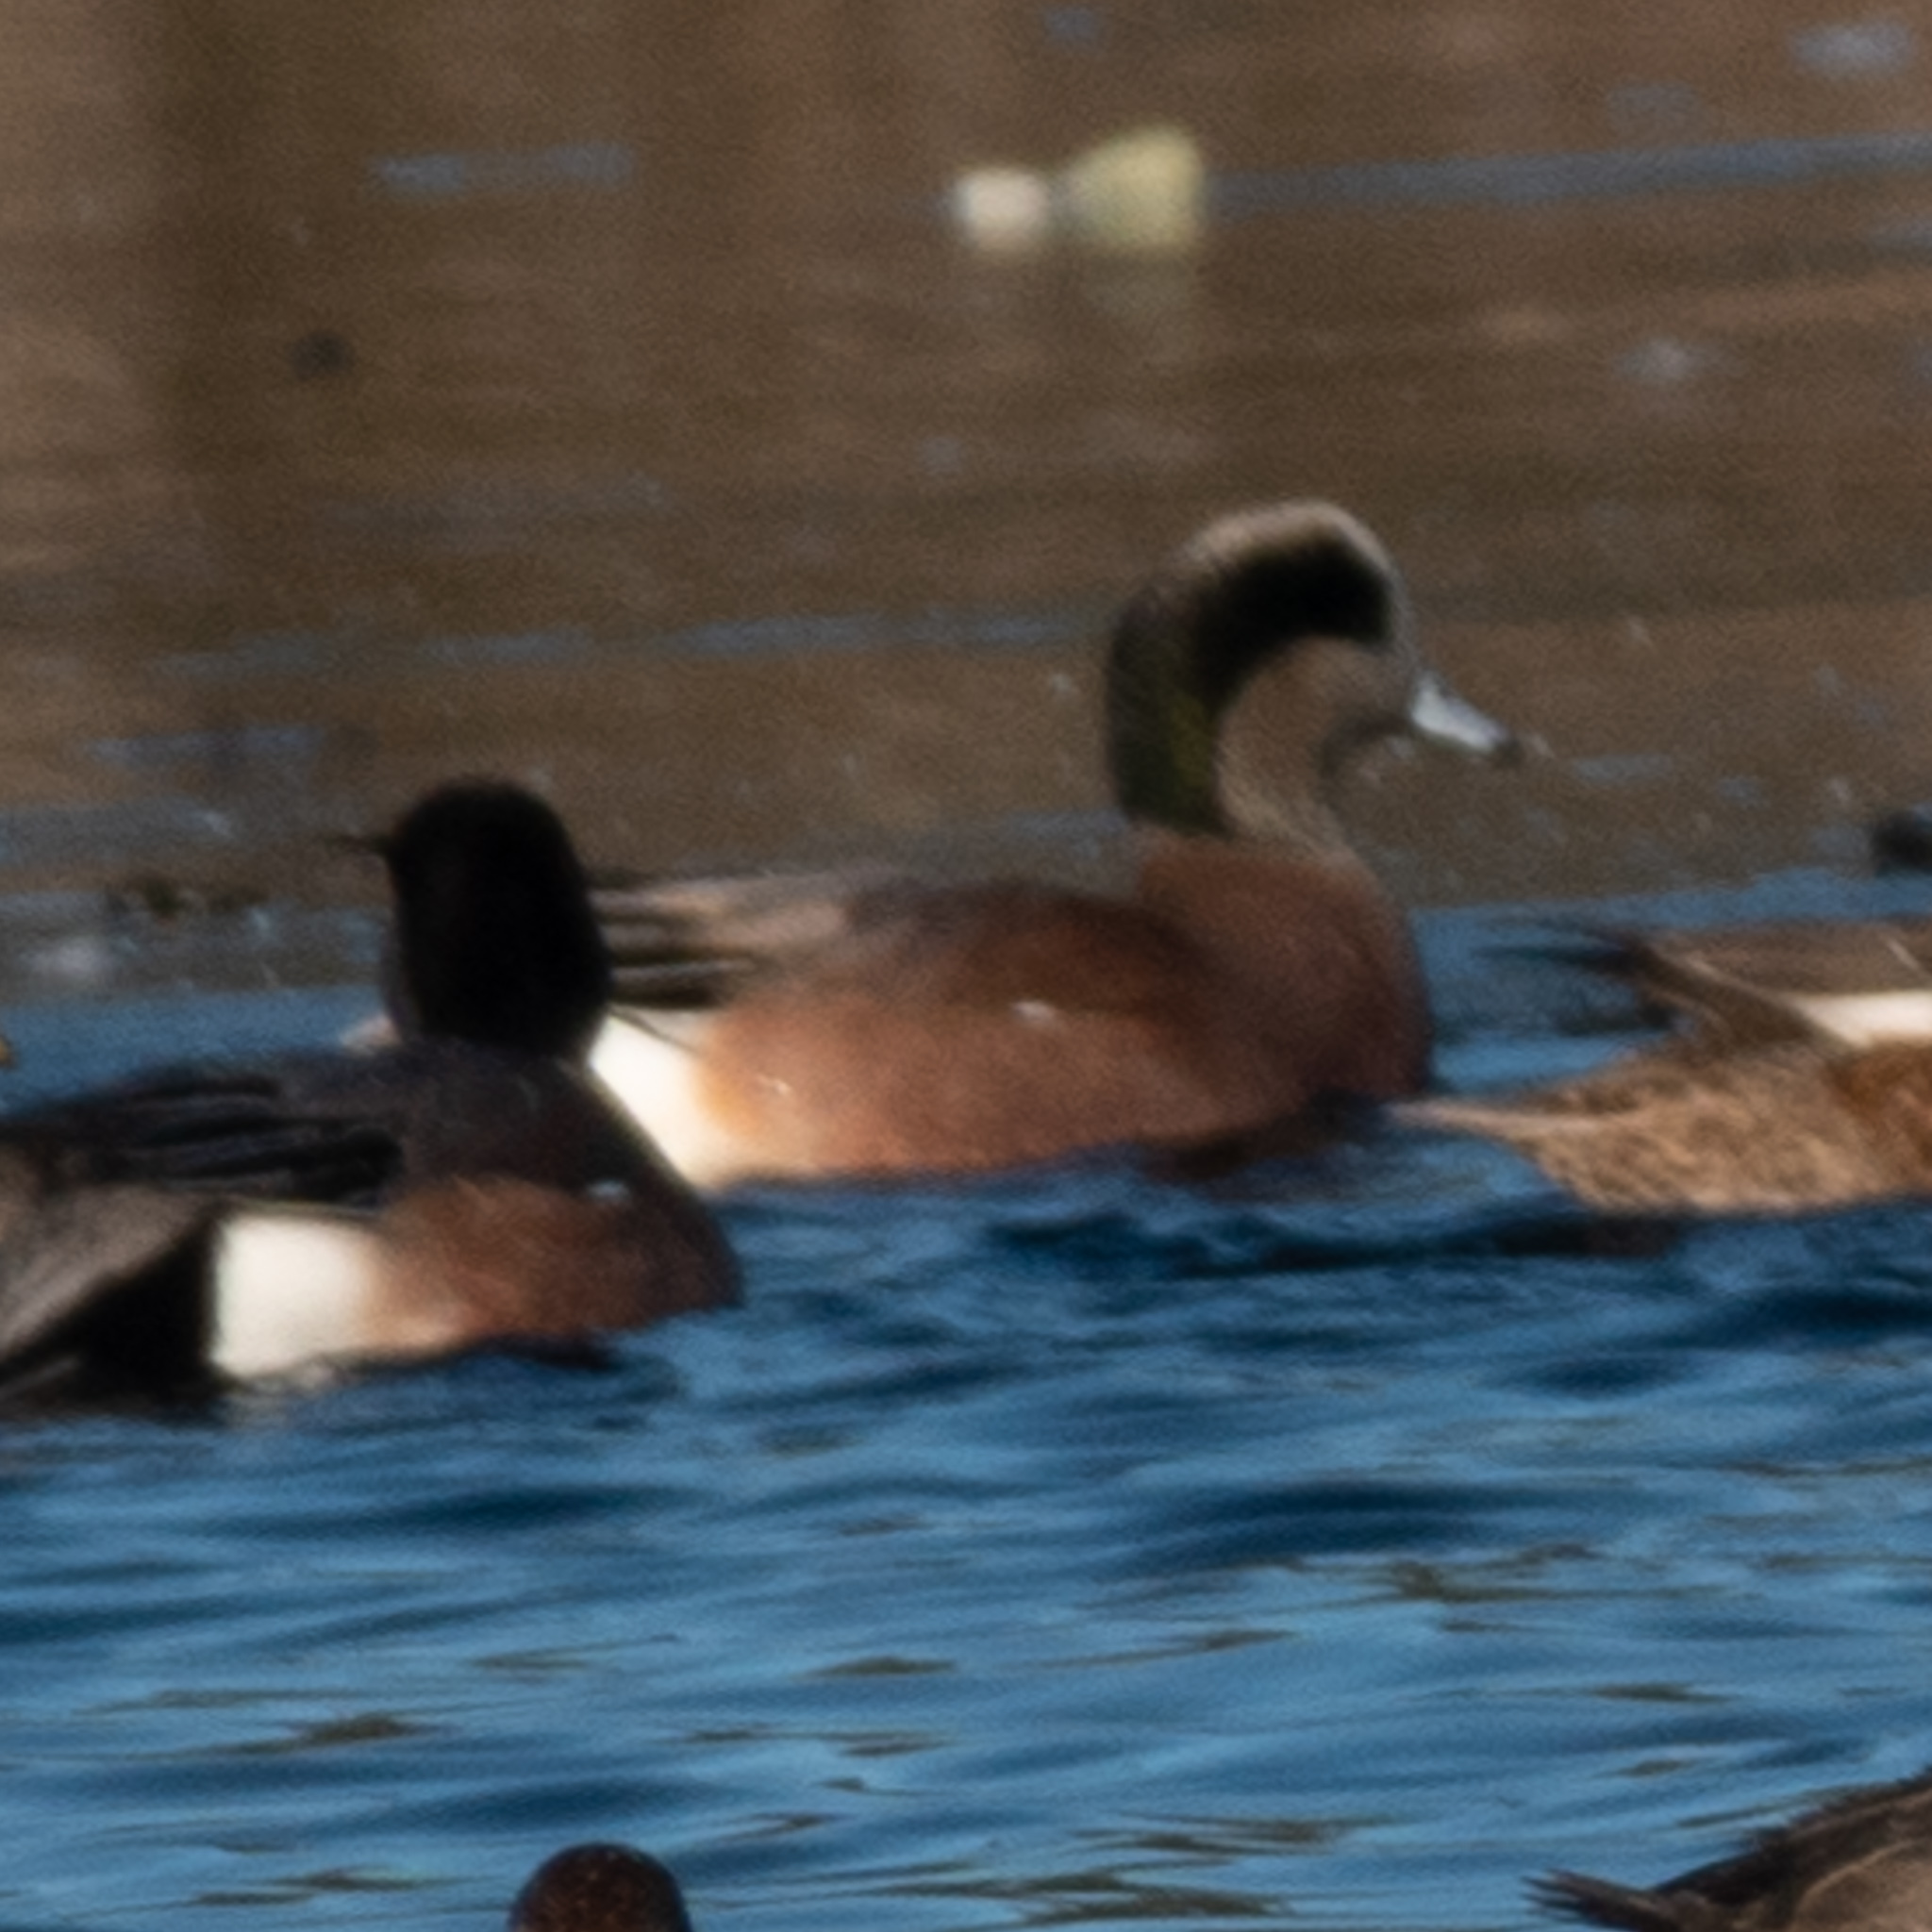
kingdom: Animalia
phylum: Chordata
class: Aves
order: Anseriformes
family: Anatidae
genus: Mareca
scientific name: Mareca americana
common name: American wigeon
